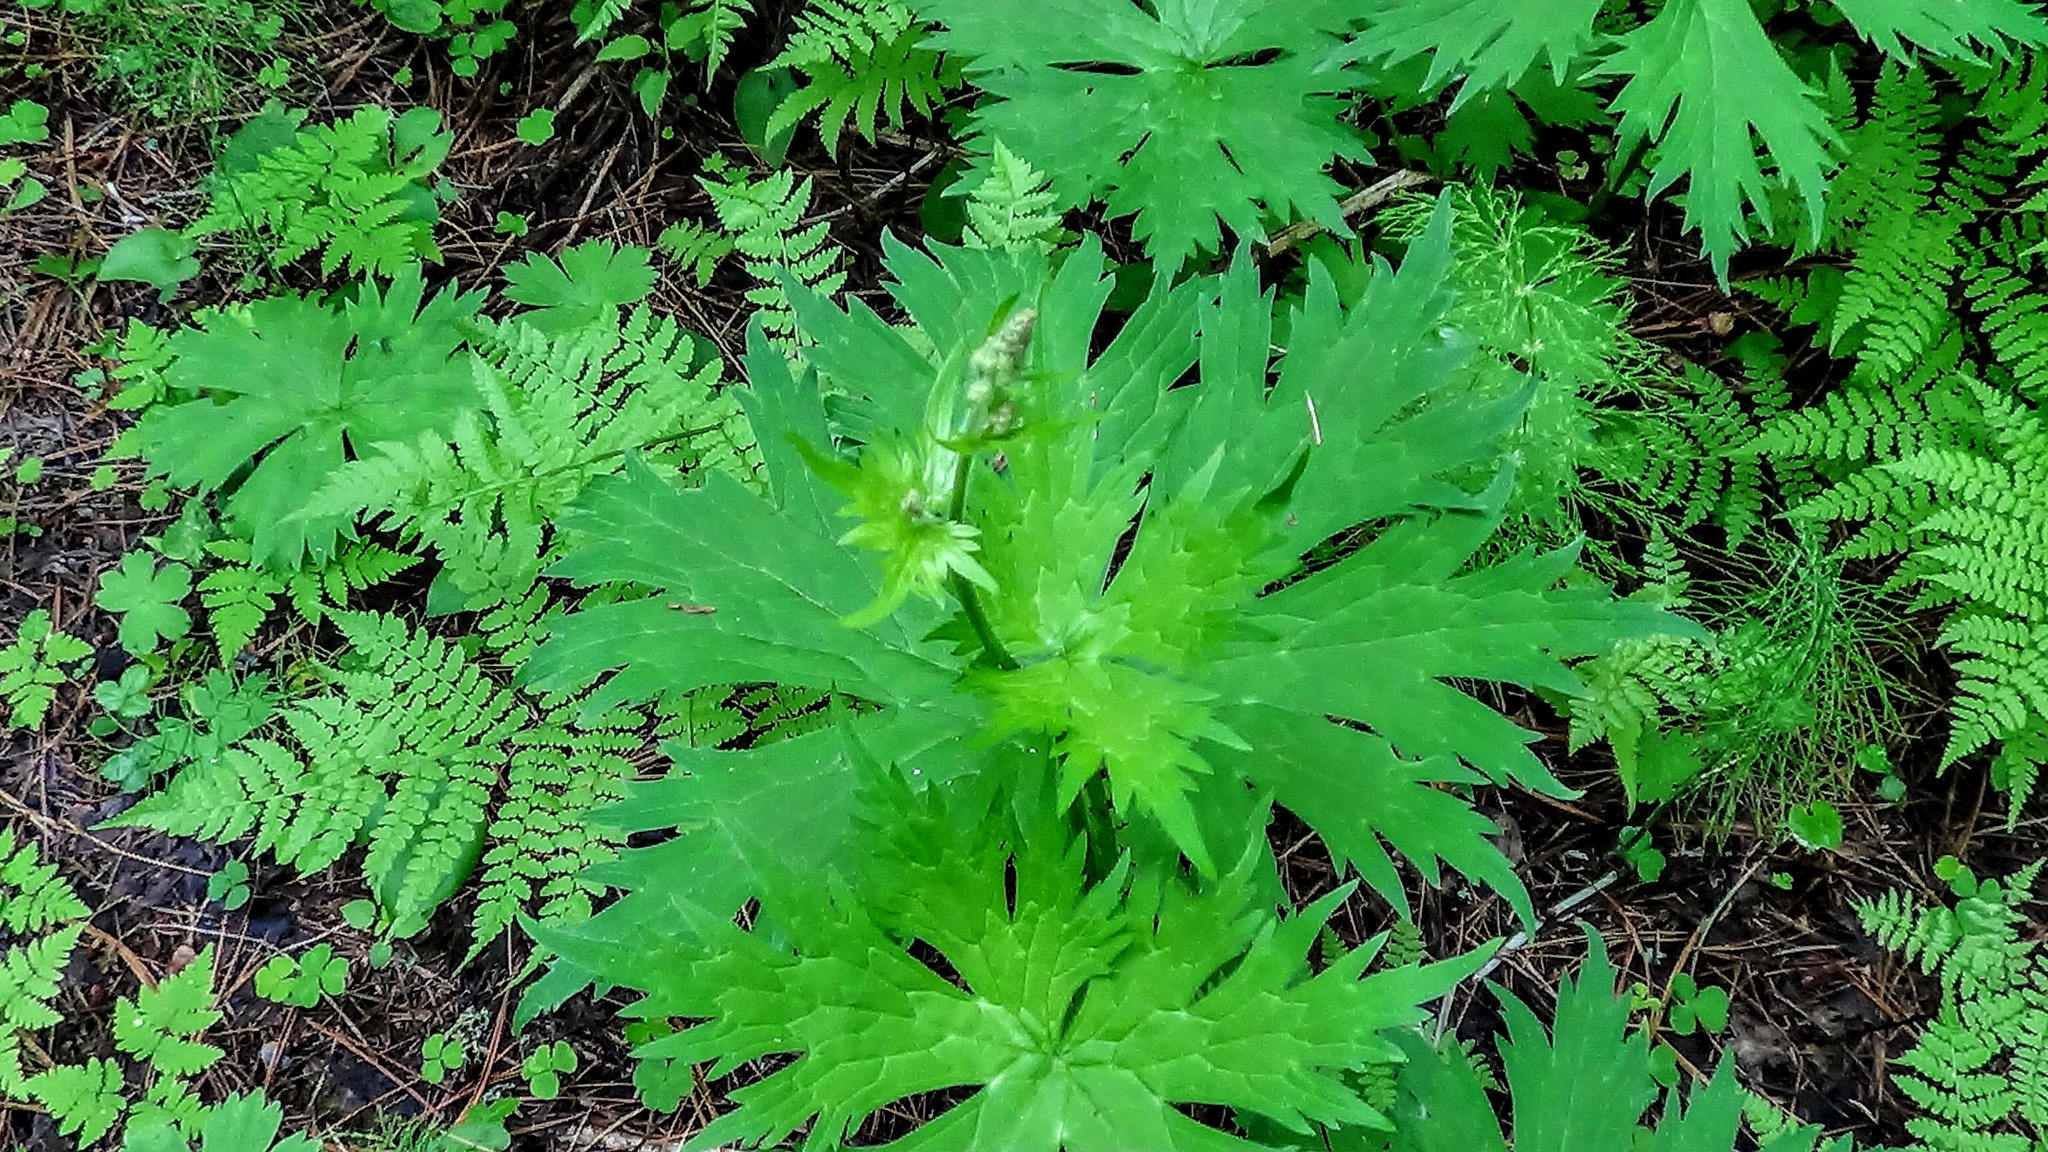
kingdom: Plantae
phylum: Tracheophyta
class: Magnoliopsida
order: Ranunculales
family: Ranunculaceae
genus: Aconitum
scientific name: Aconitum septentrionale
